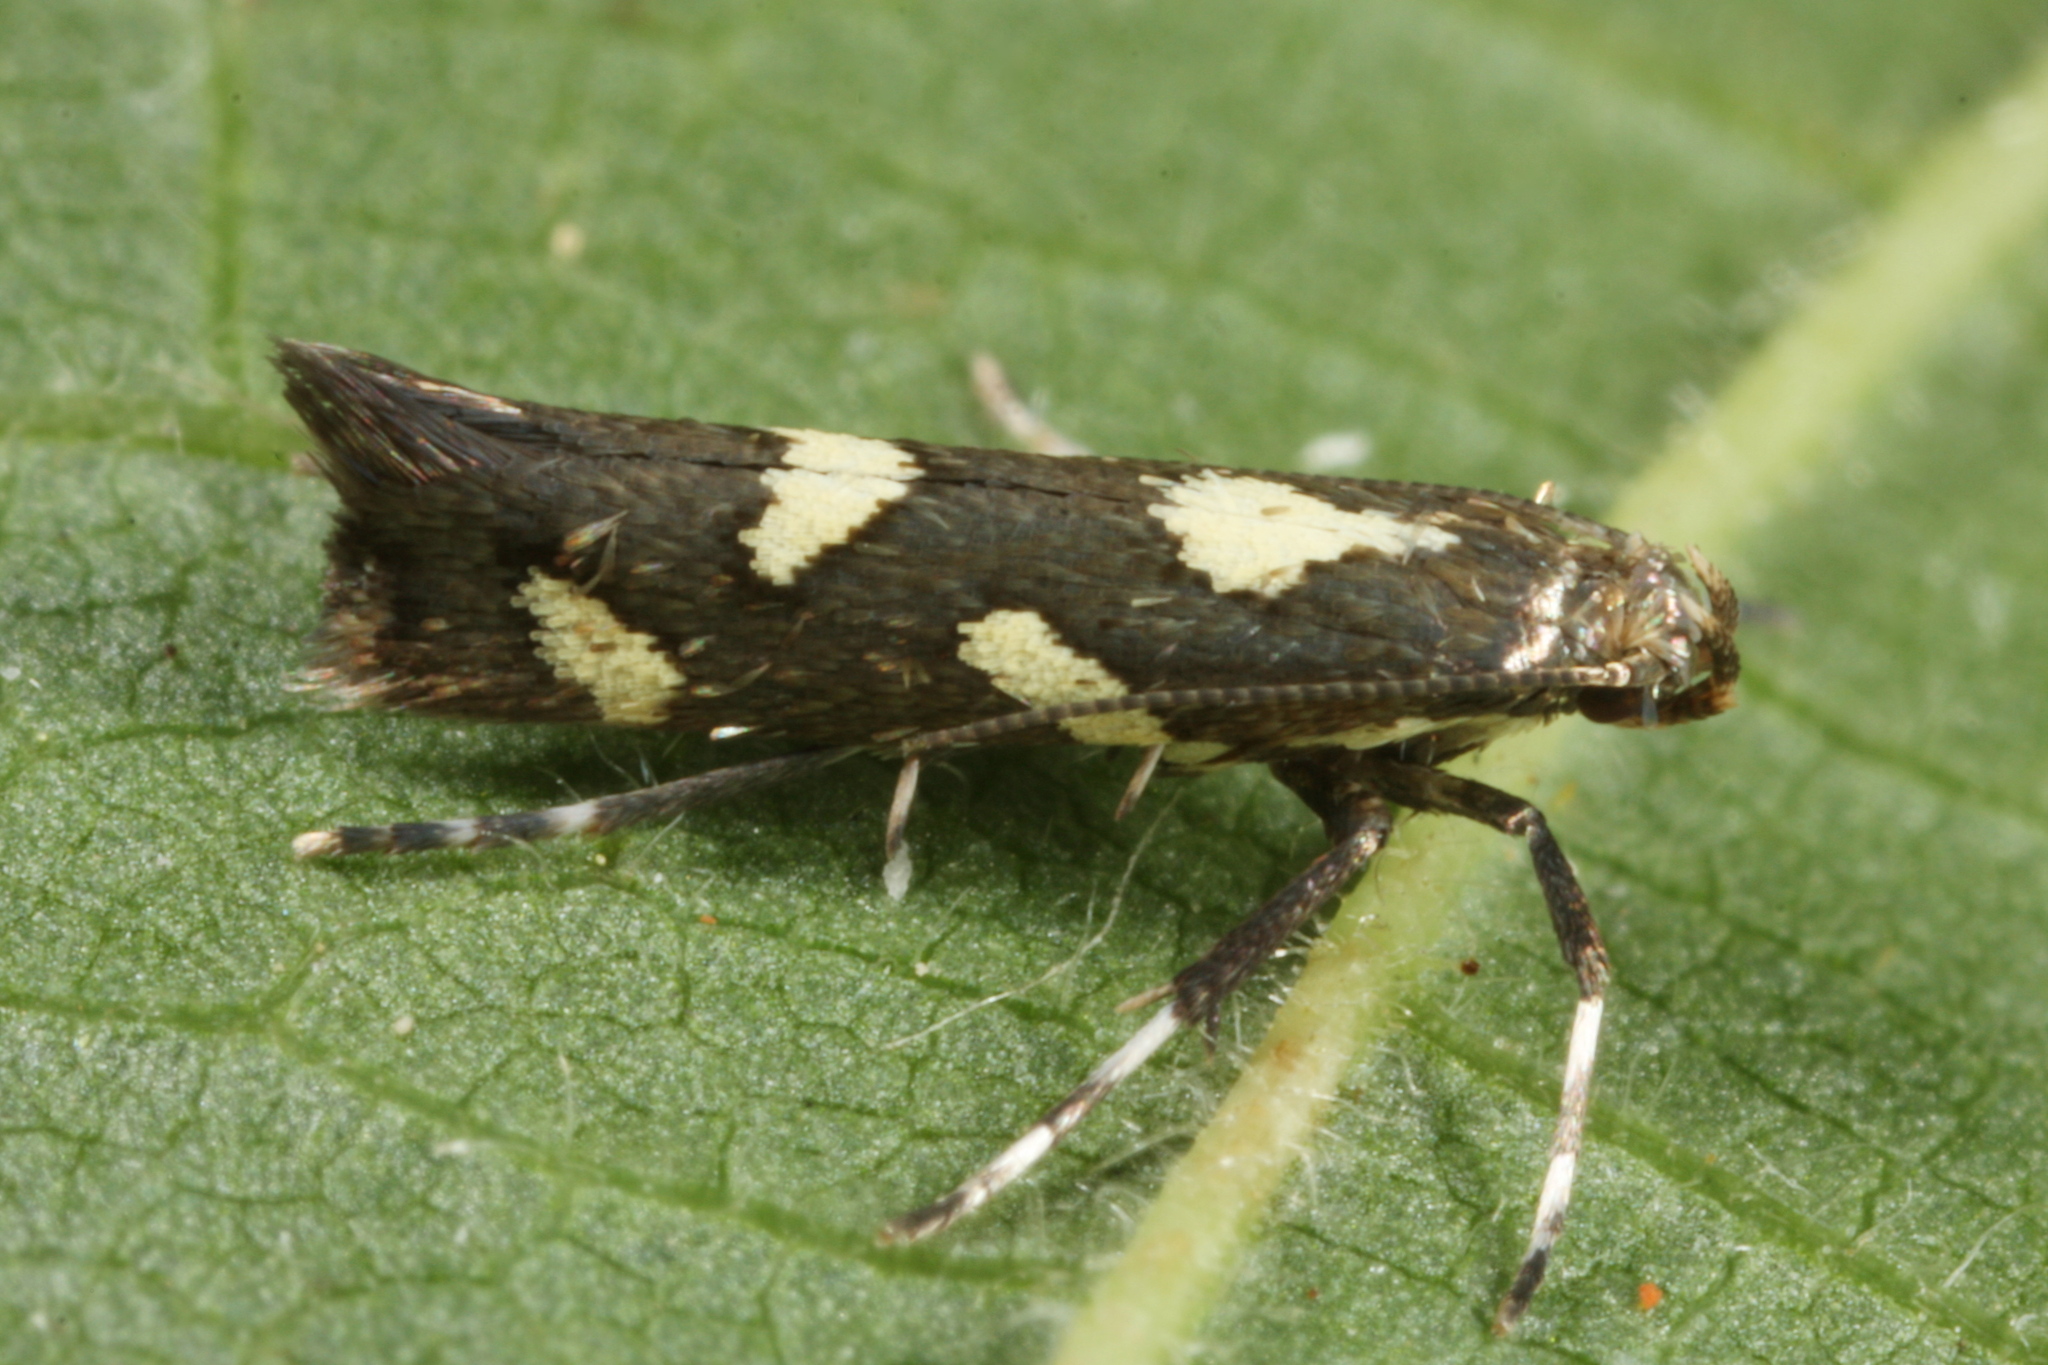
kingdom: Animalia
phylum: Arthropoda
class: Insecta
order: Lepidoptera
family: Gracillariidae
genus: Calybites
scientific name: Calybites phasianipennella
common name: Little slender
